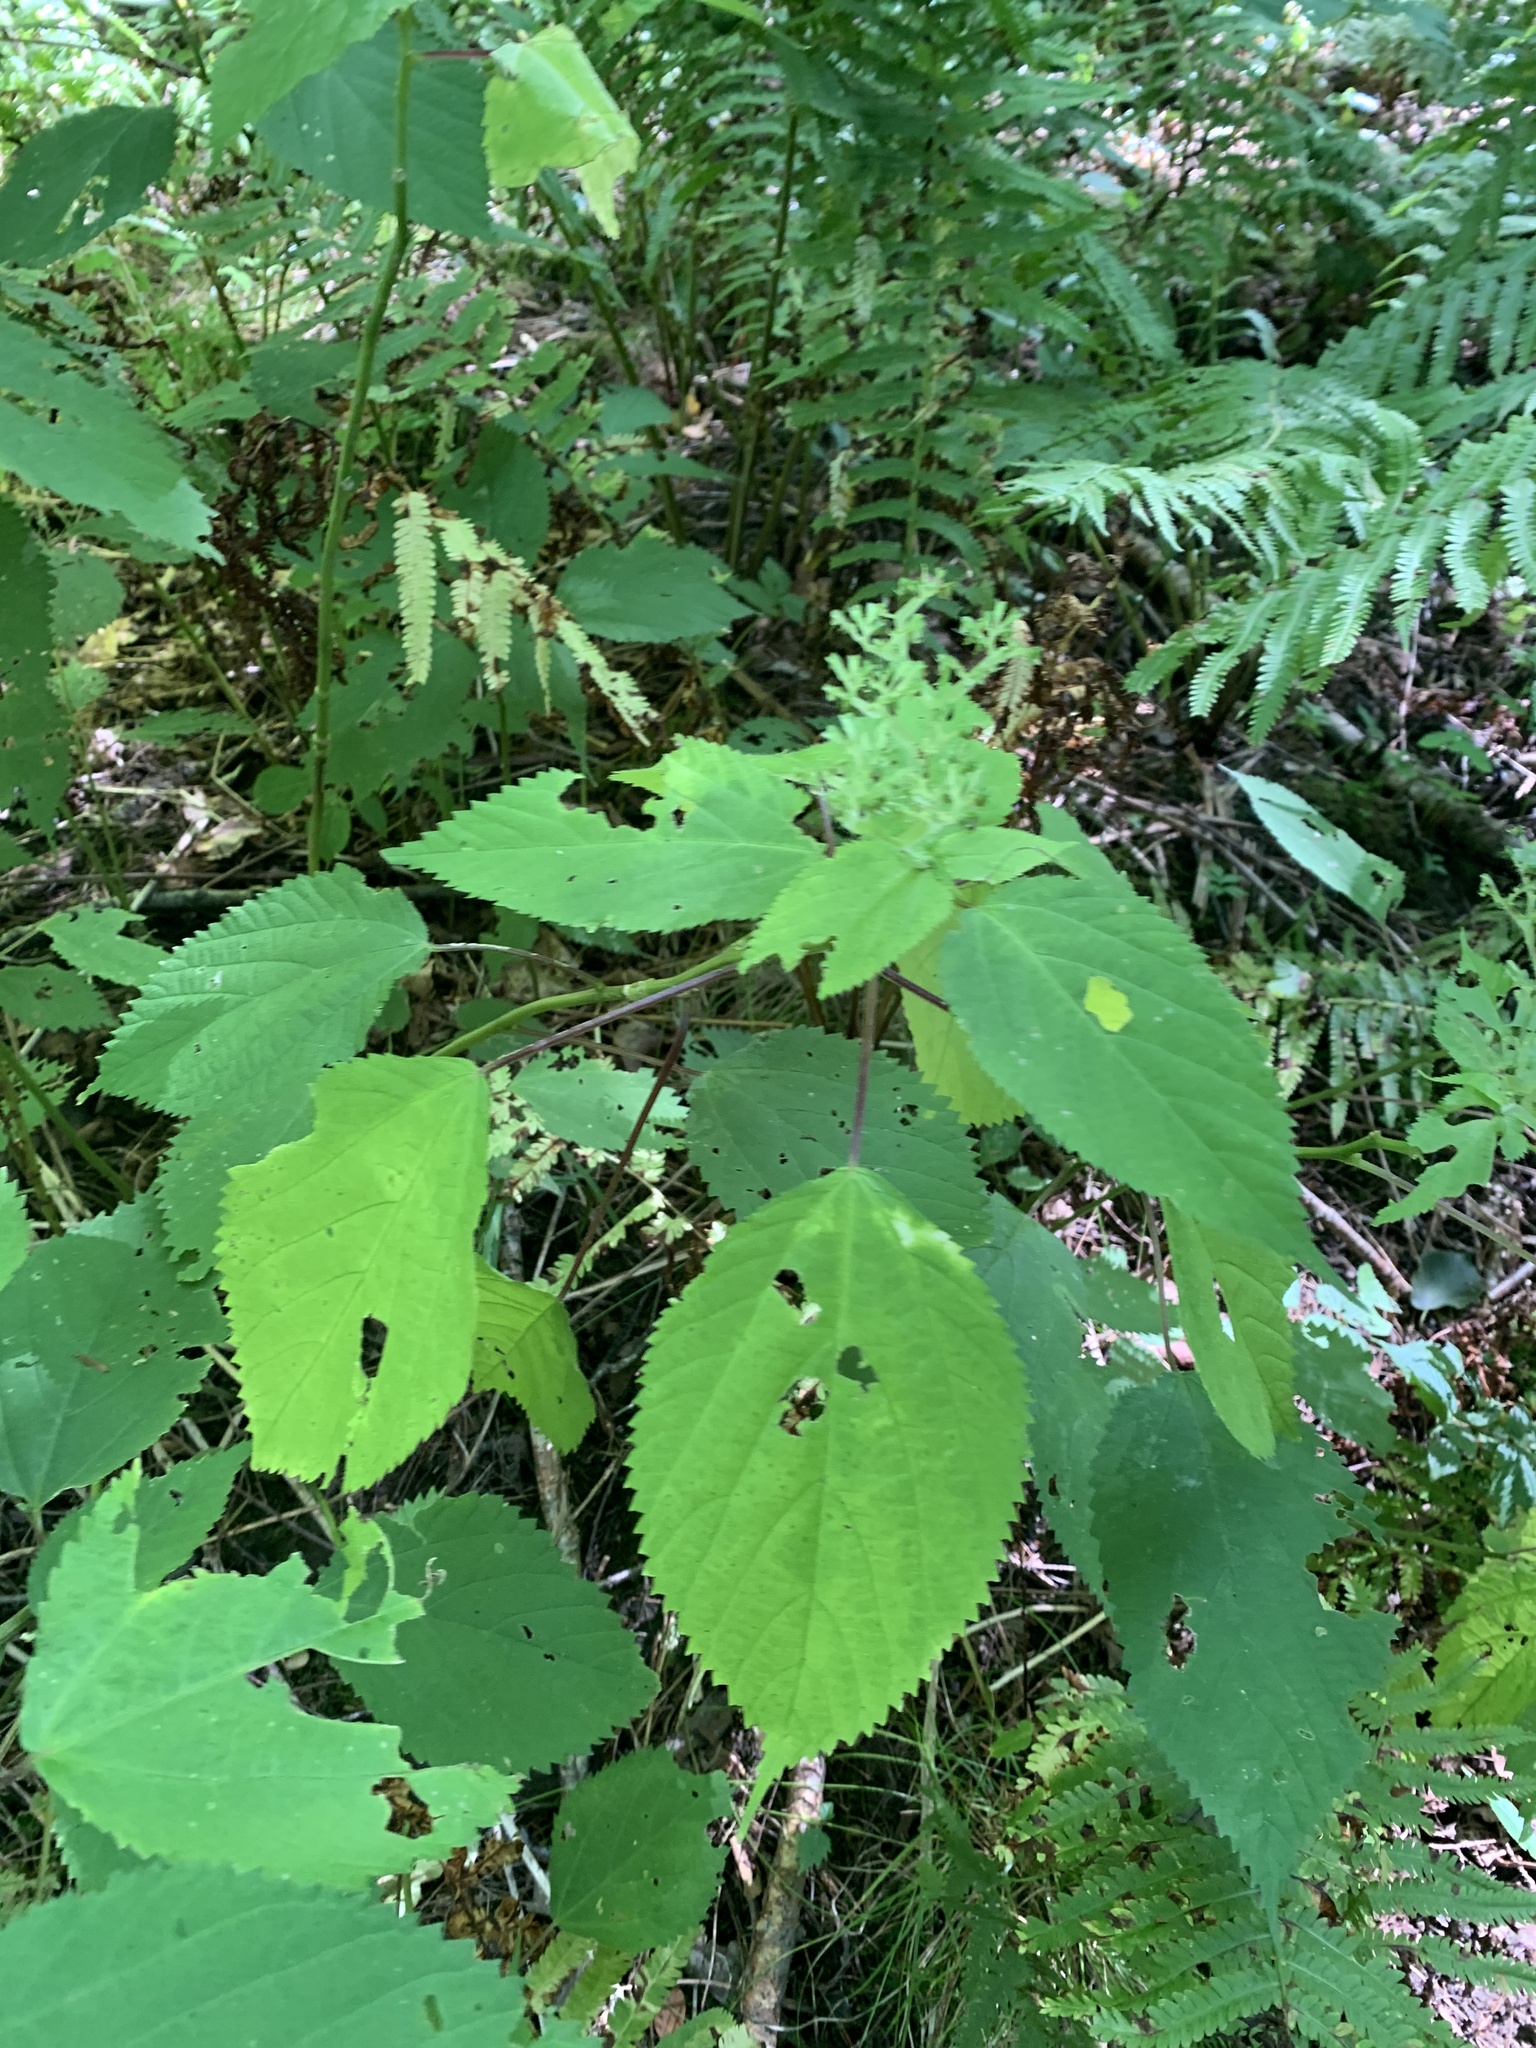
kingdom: Plantae
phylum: Tracheophyta
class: Magnoliopsida
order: Rosales
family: Urticaceae
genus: Laportea
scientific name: Laportea canadensis
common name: Canada nettle
